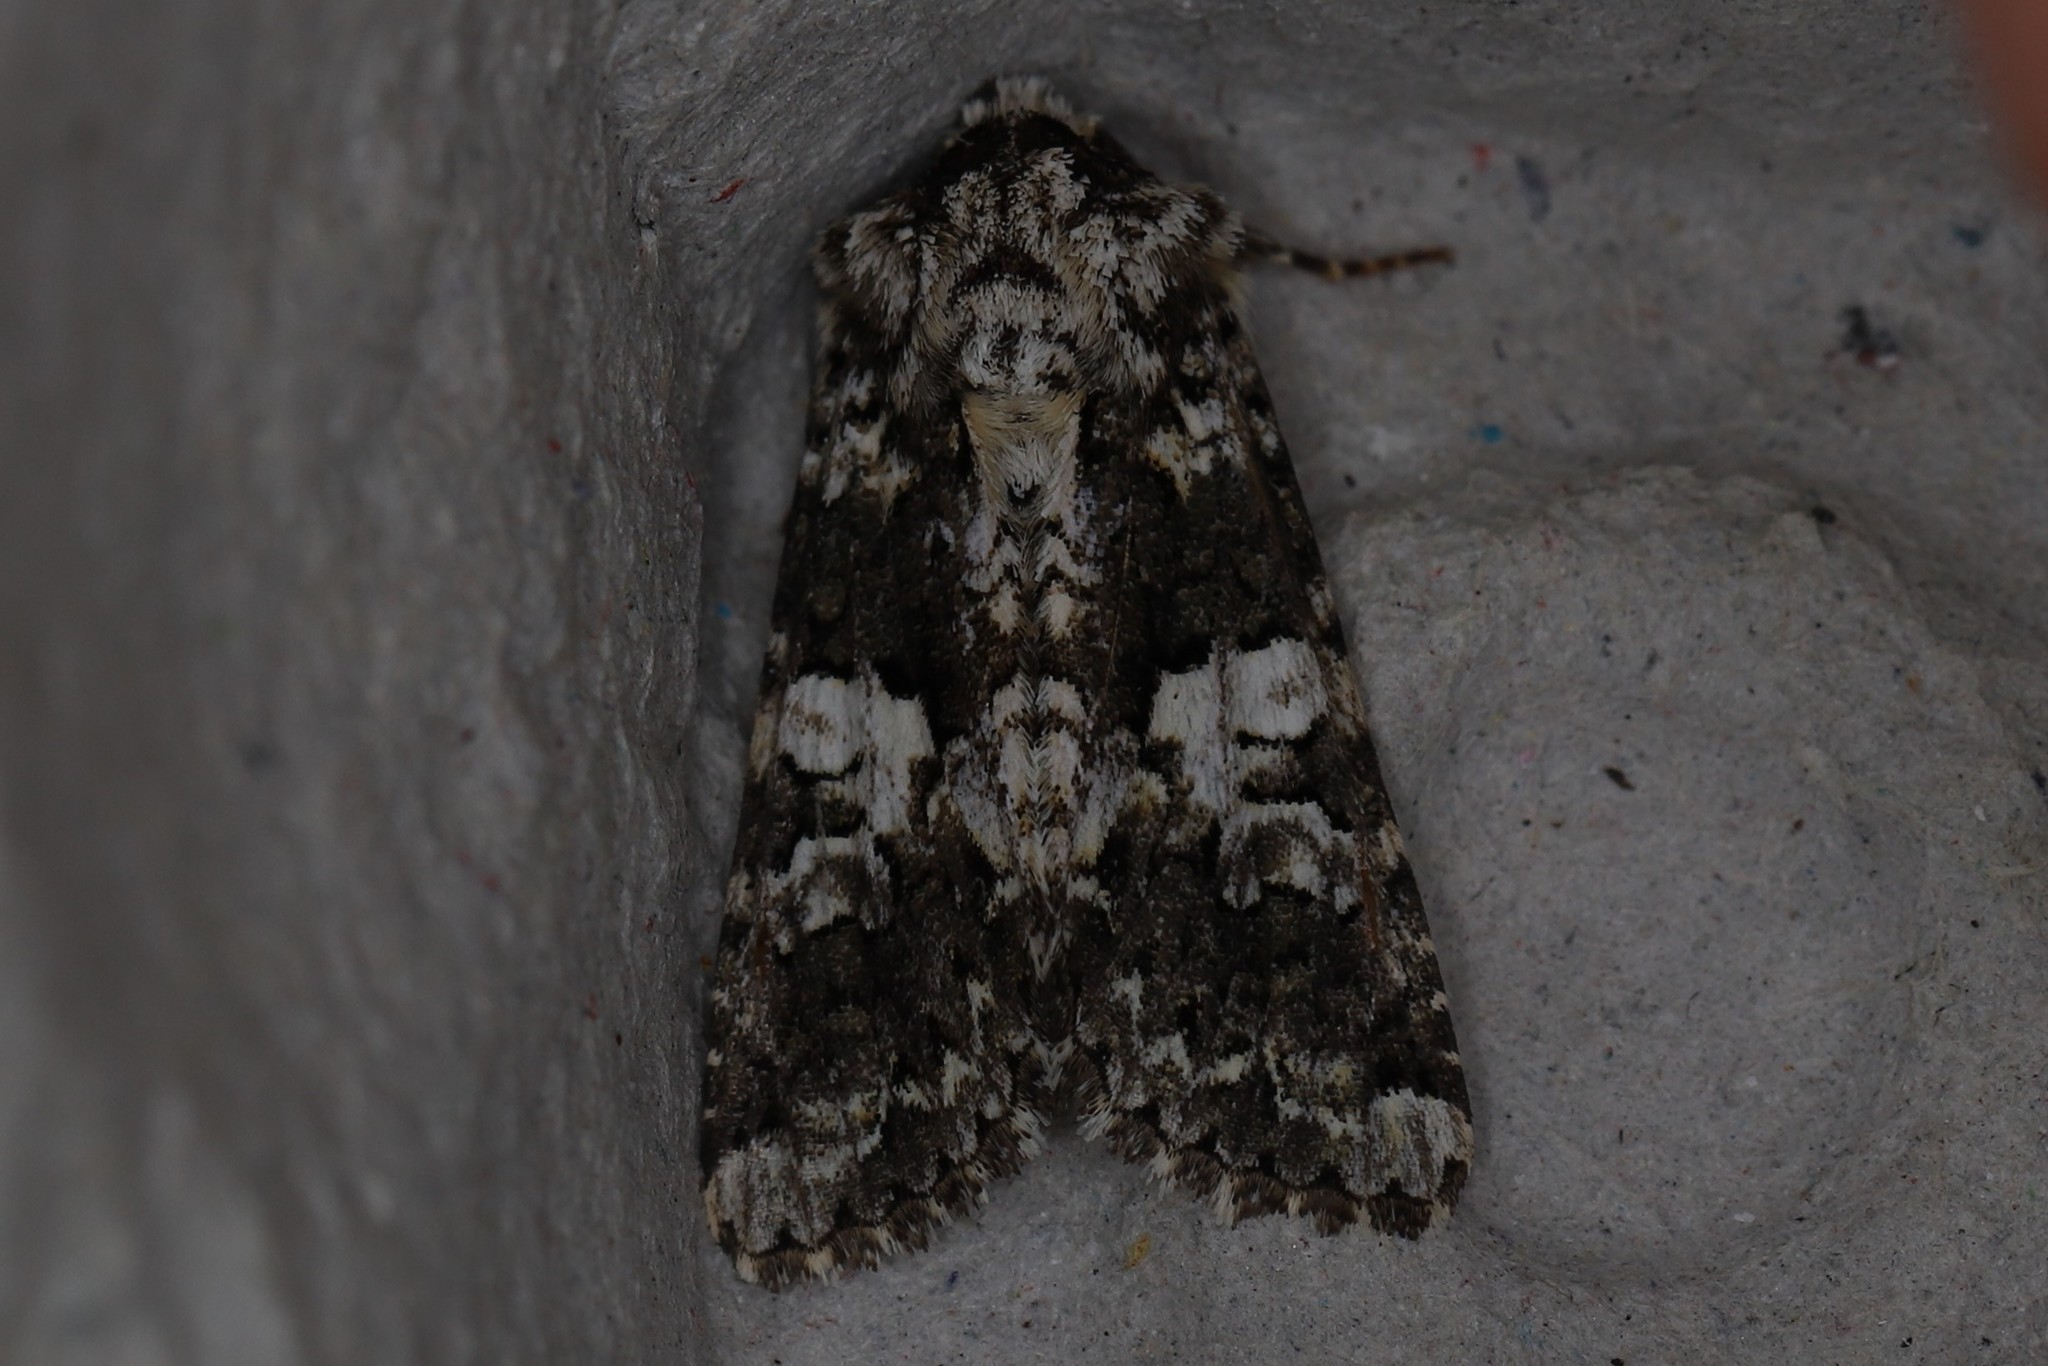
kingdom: Animalia
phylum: Arthropoda
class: Insecta
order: Lepidoptera
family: Noctuidae
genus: Hadena
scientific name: Hadena confusa
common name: Marbled coronet
